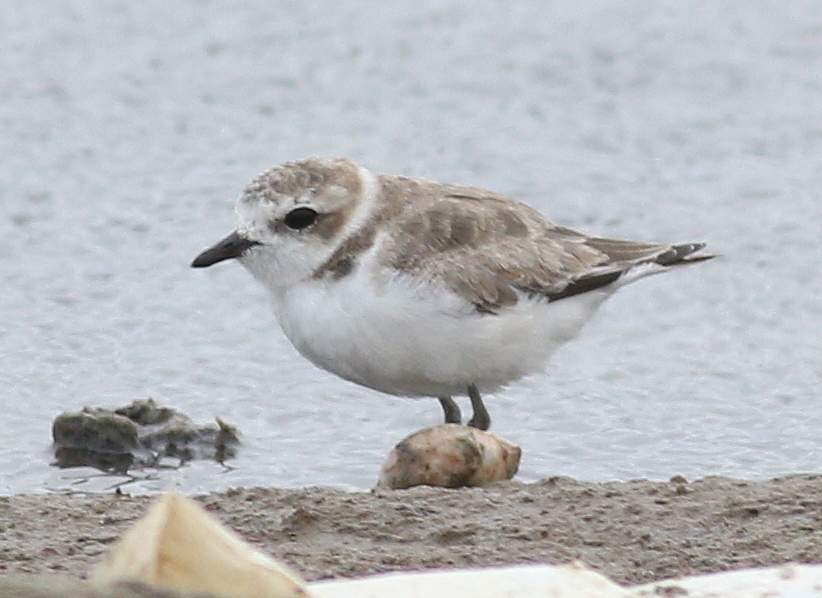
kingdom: Animalia
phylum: Chordata
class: Aves
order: Charadriiformes
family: Charadriidae
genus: Anarhynchus
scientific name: Anarhynchus
